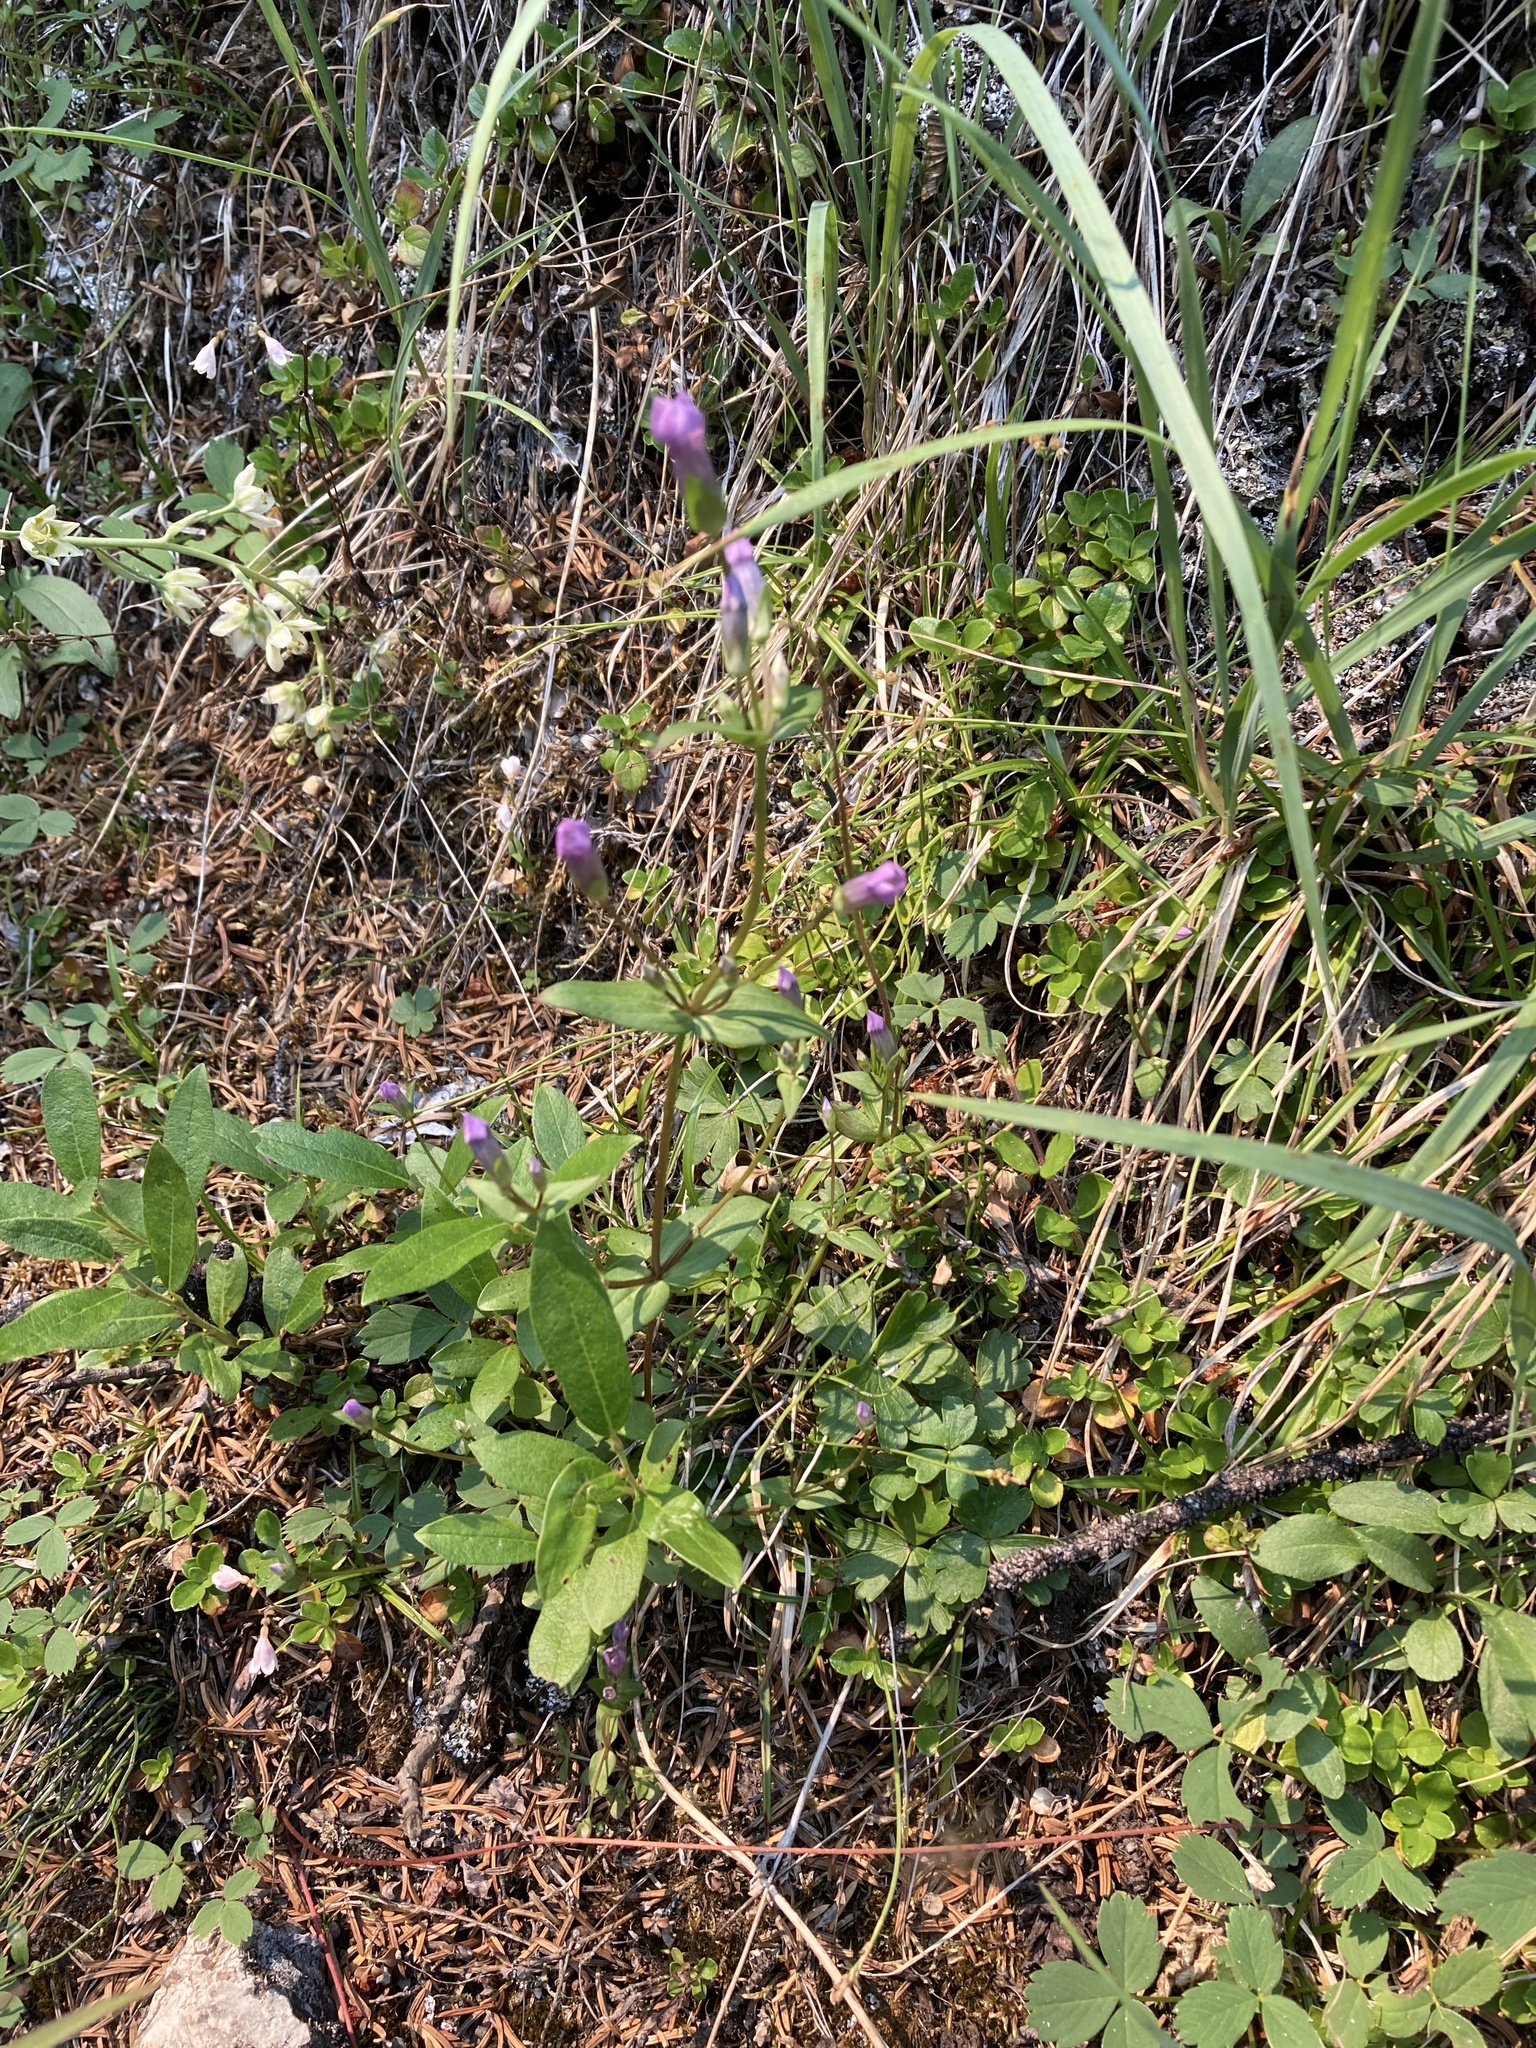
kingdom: Plantae
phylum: Tracheophyta
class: Magnoliopsida
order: Gentianales
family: Gentianaceae
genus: Gentianella
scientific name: Gentianella propinqua
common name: Four-parted dwarf-gentian
